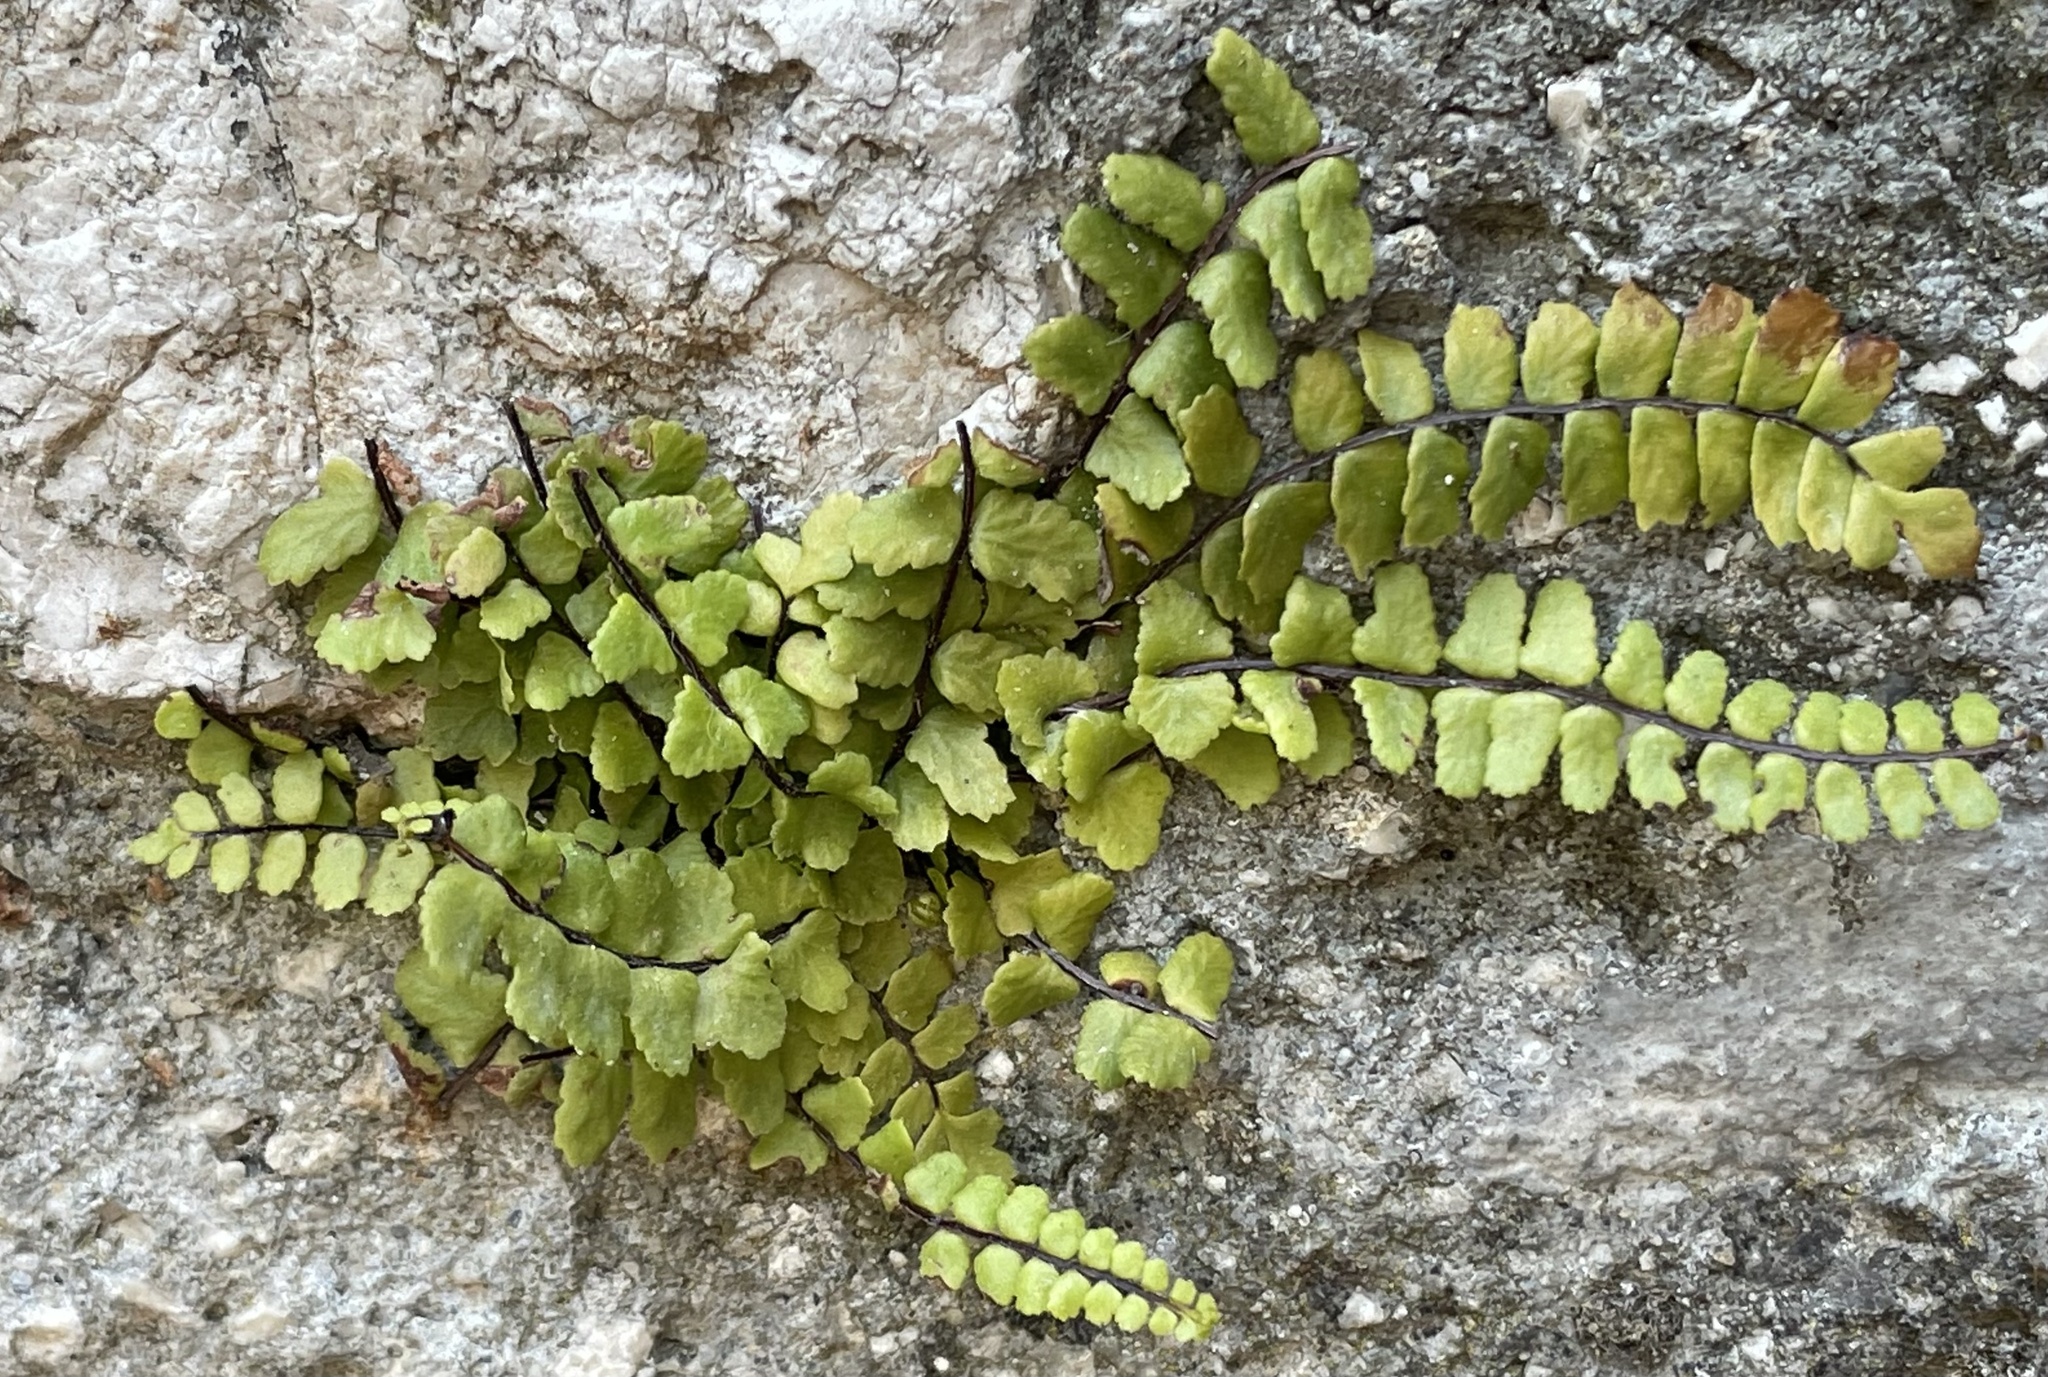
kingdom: Plantae
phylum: Tracheophyta
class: Polypodiopsida
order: Polypodiales
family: Aspleniaceae
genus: Asplenium
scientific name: Asplenium trichomanes
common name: Maidenhair spleenwort
